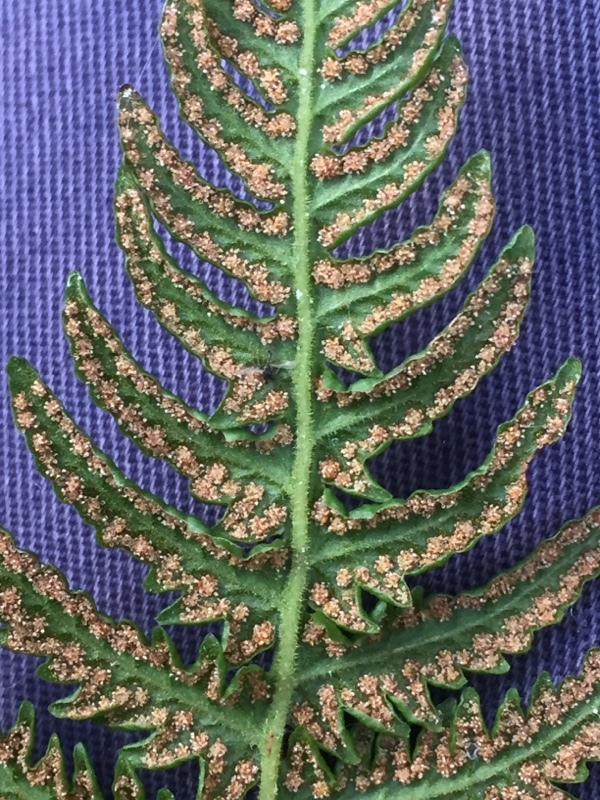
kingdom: Plantae
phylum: Tracheophyta
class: Polypodiopsida
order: Polypodiales
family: Thelypteridaceae
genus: Oreopteris
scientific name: Oreopteris limbosperma
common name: Lemon-scented fern
